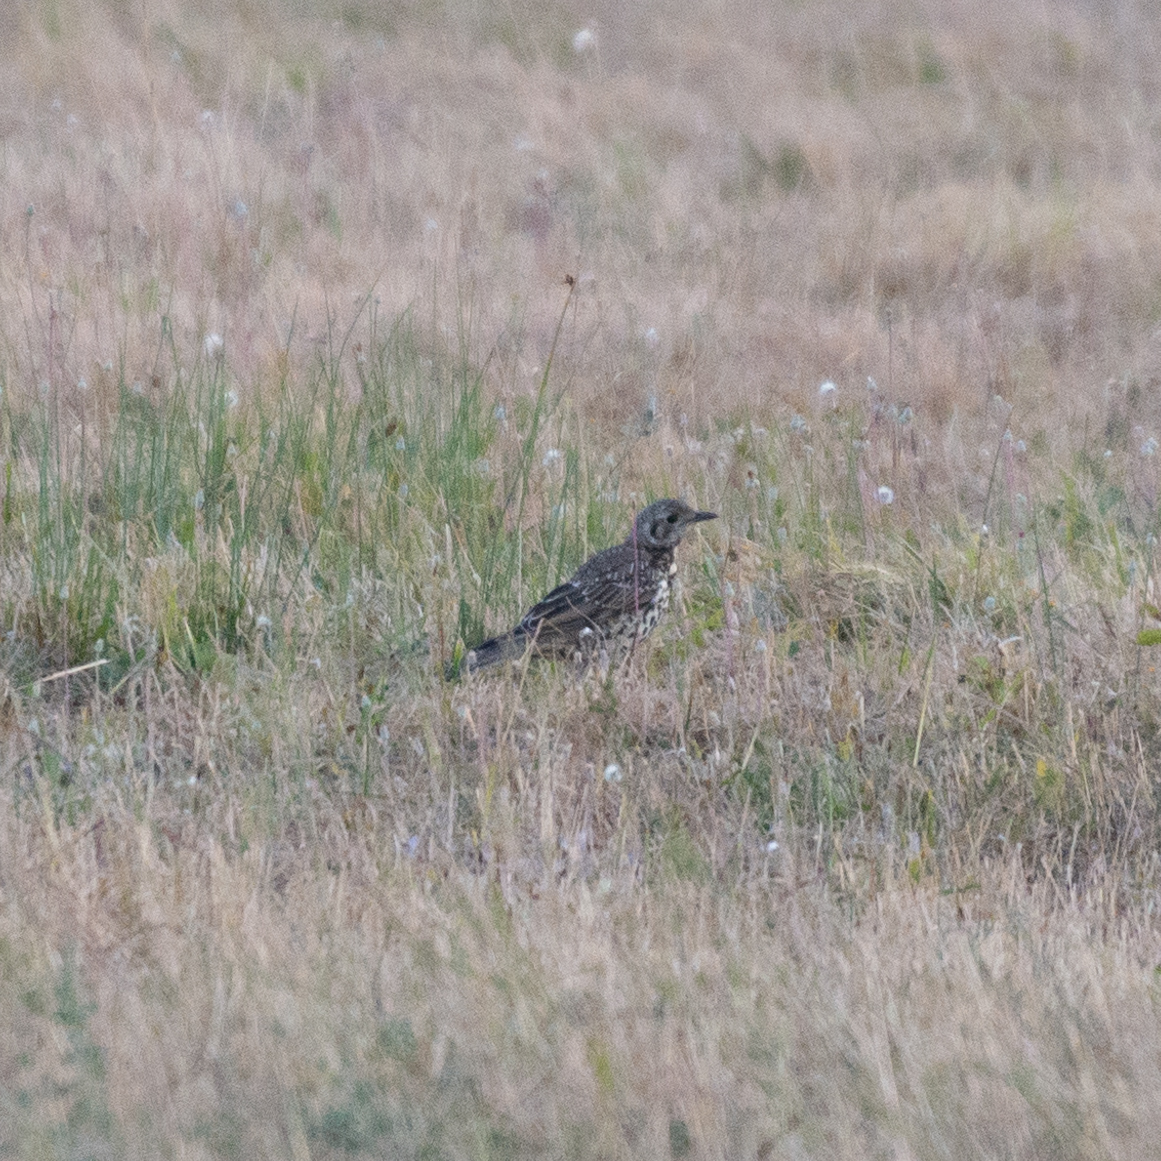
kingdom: Animalia
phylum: Chordata
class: Aves
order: Passeriformes
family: Turdidae
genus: Turdus
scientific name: Turdus viscivorus
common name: Mistle thrush
